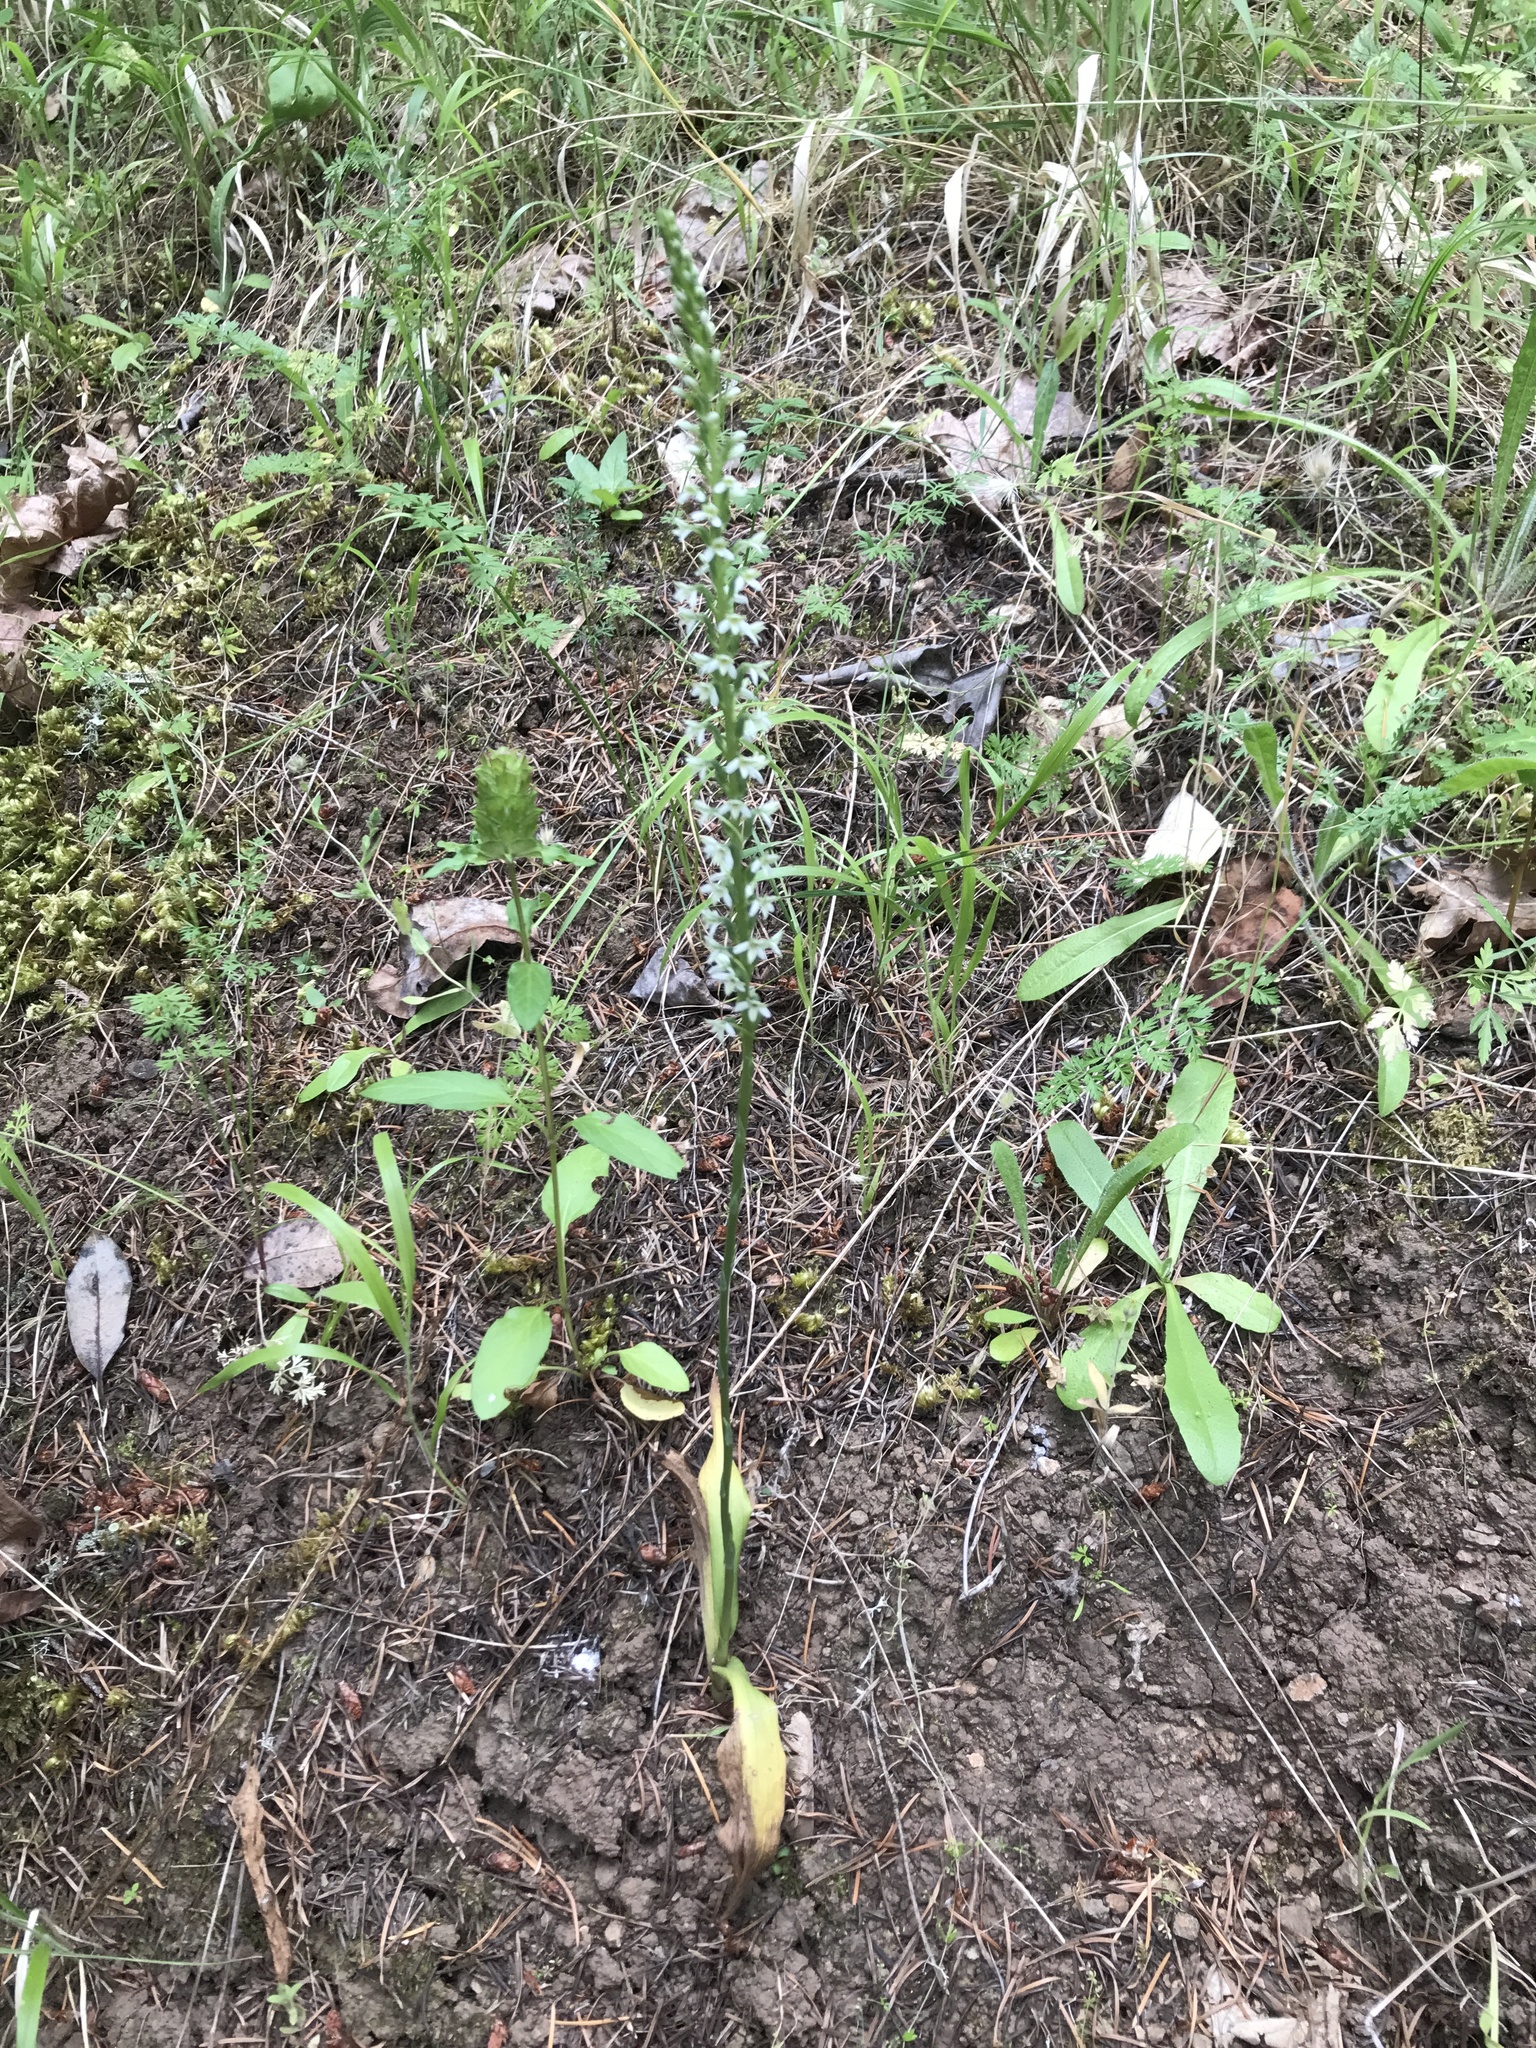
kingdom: Plantae
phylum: Tracheophyta
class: Liliopsida
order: Asparagales
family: Orchidaceae
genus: Platanthera
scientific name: Platanthera elegans
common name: Coast piperia
